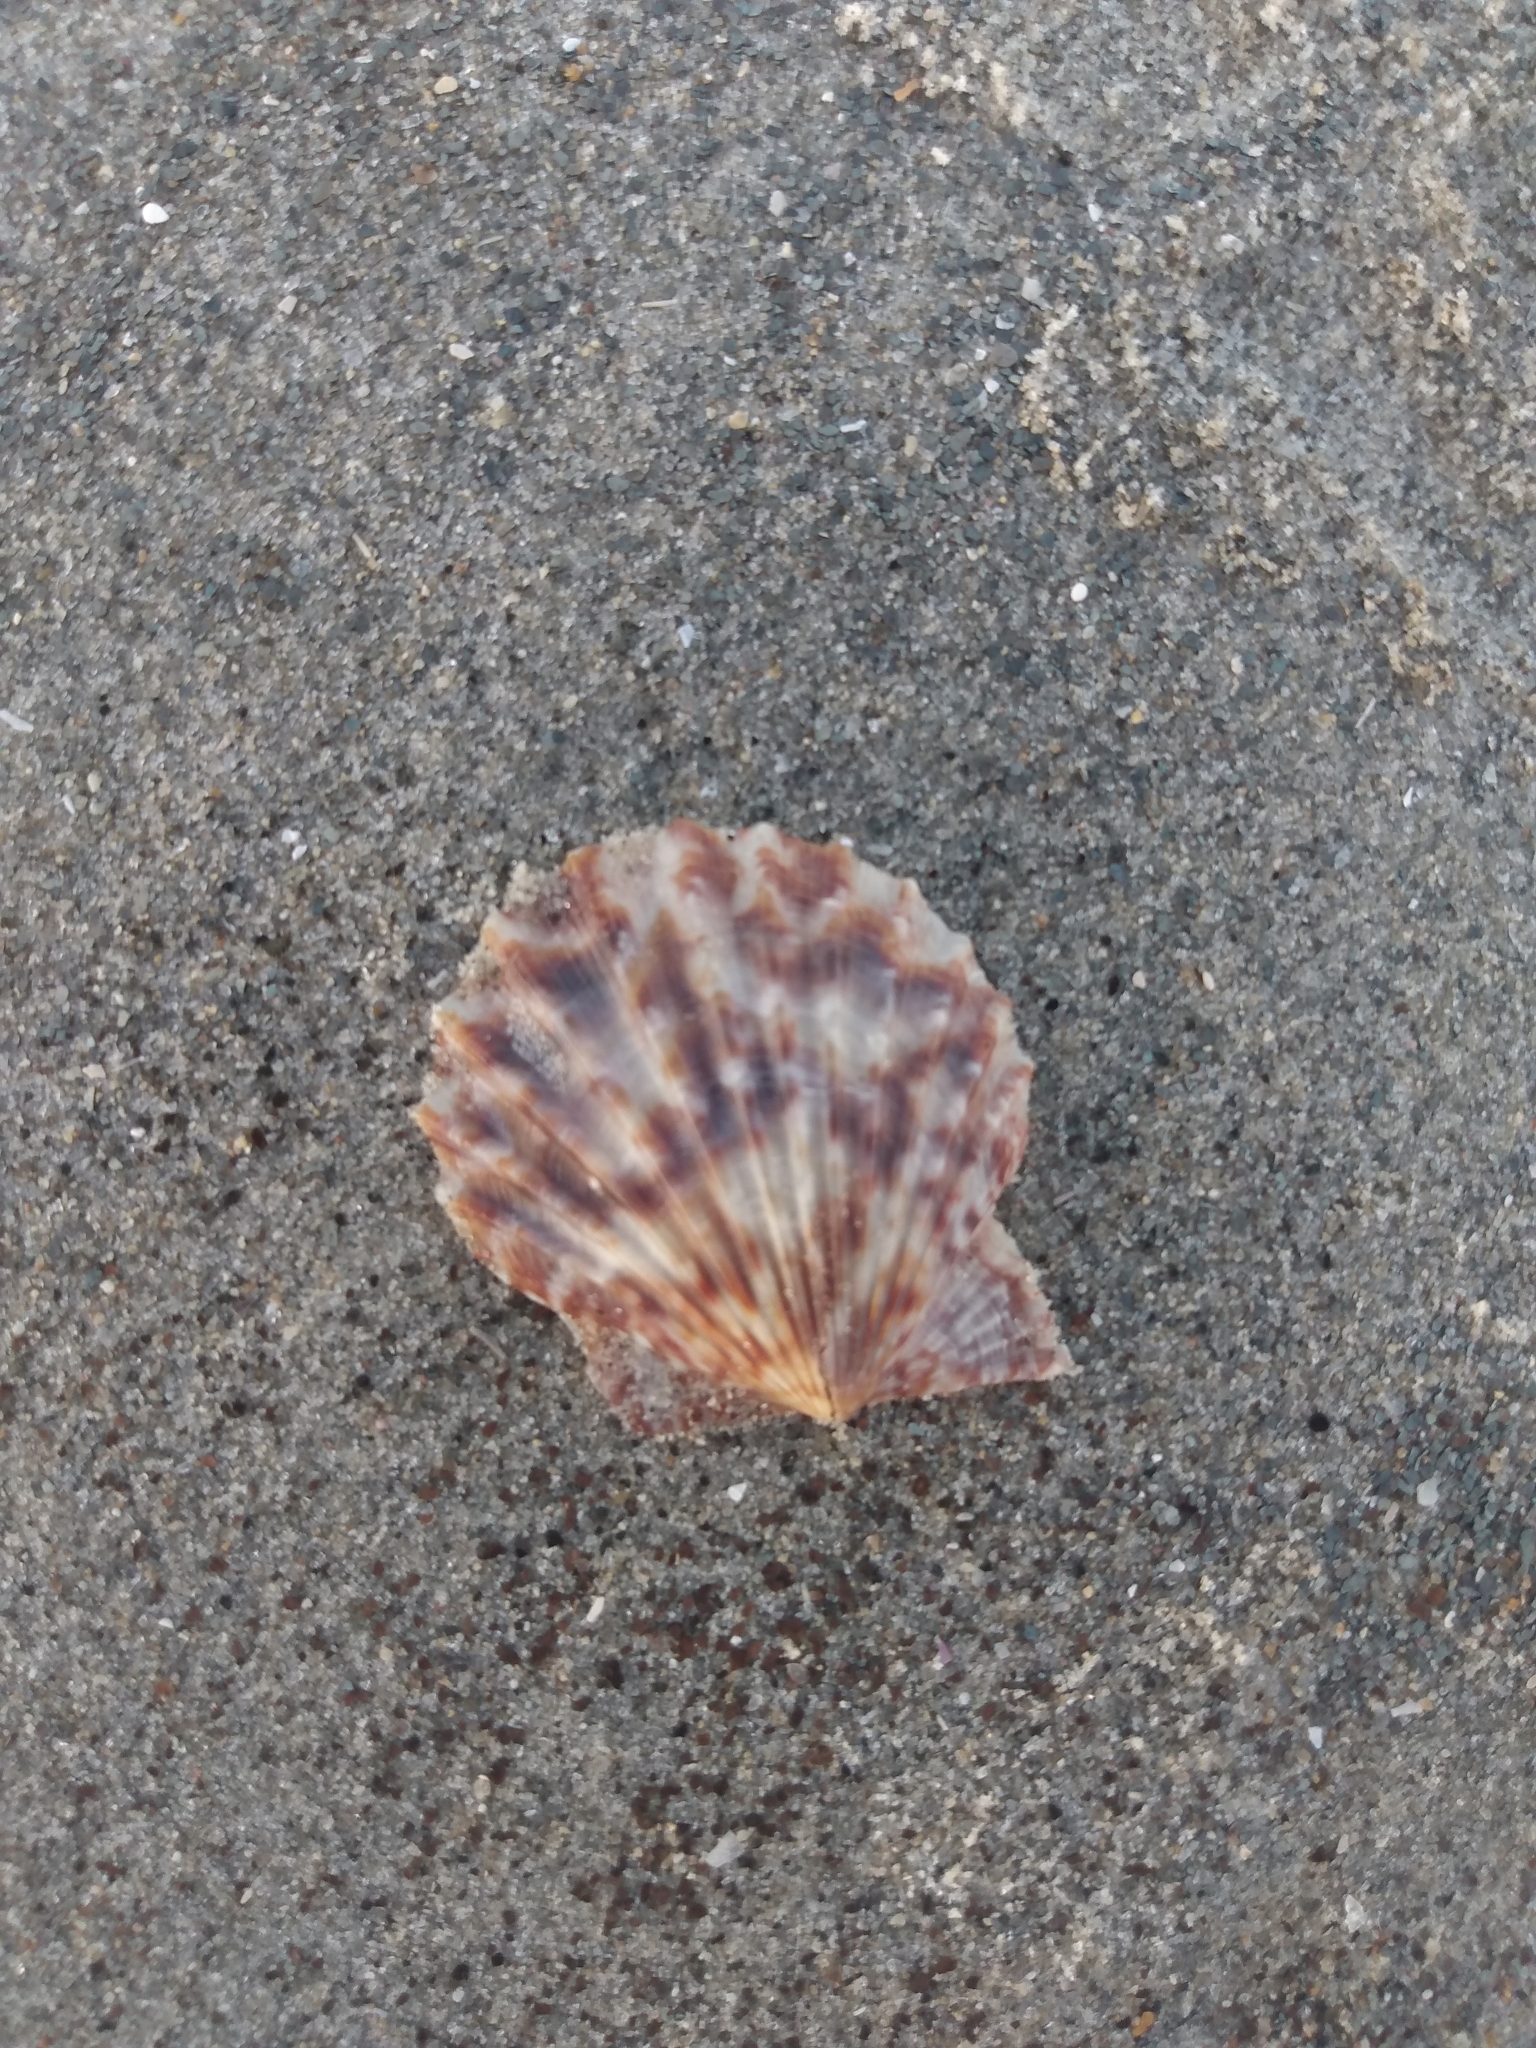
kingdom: Animalia
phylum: Mollusca
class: Bivalvia
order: Pectinida
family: Pectinidae
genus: Leptopecten
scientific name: Leptopecten latiauratus
